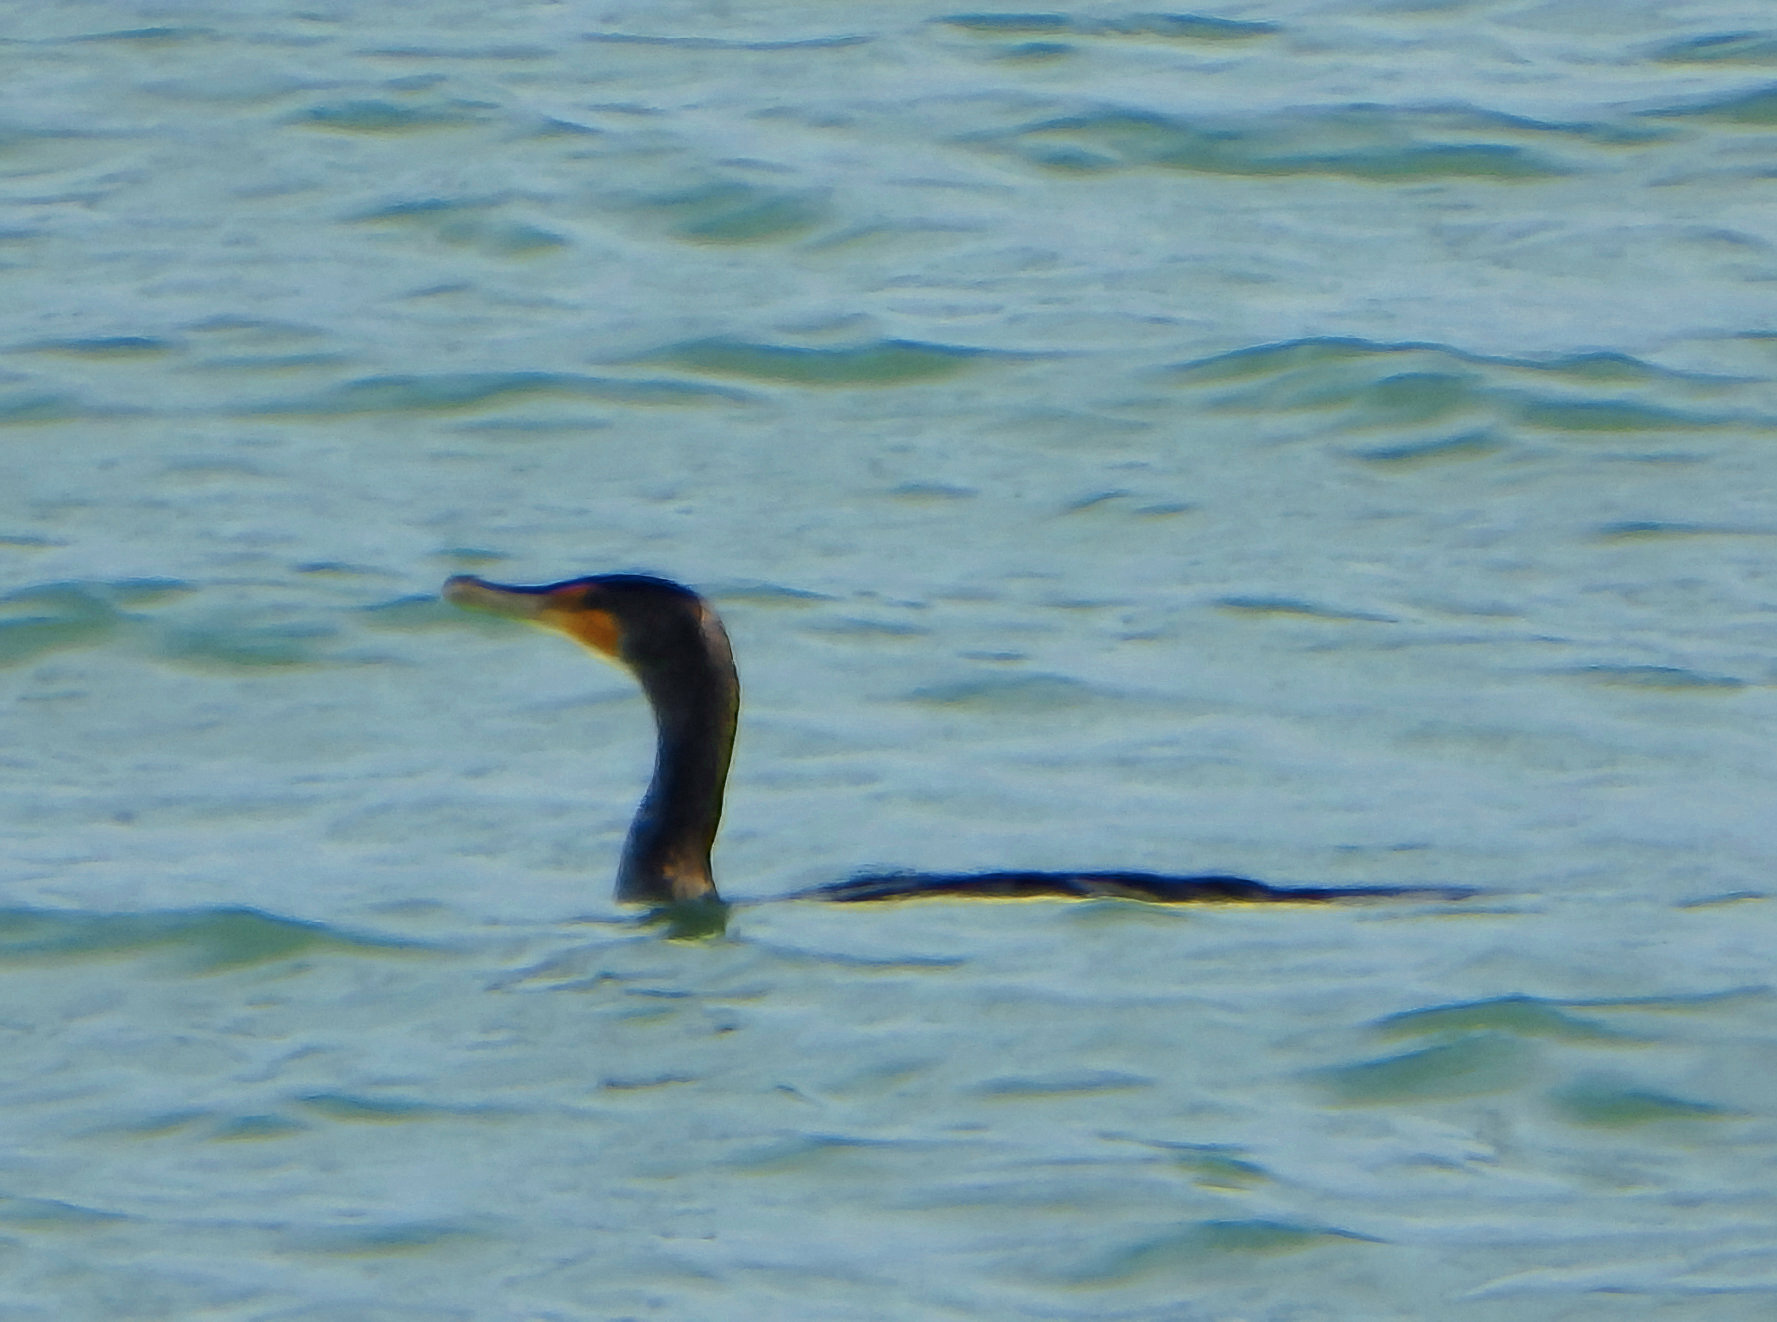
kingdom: Animalia
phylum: Chordata
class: Aves
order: Suliformes
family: Phalacrocoracidae
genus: Phalacrocorax
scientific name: Phalacrocorax auritus
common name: Double-crested cormorant
